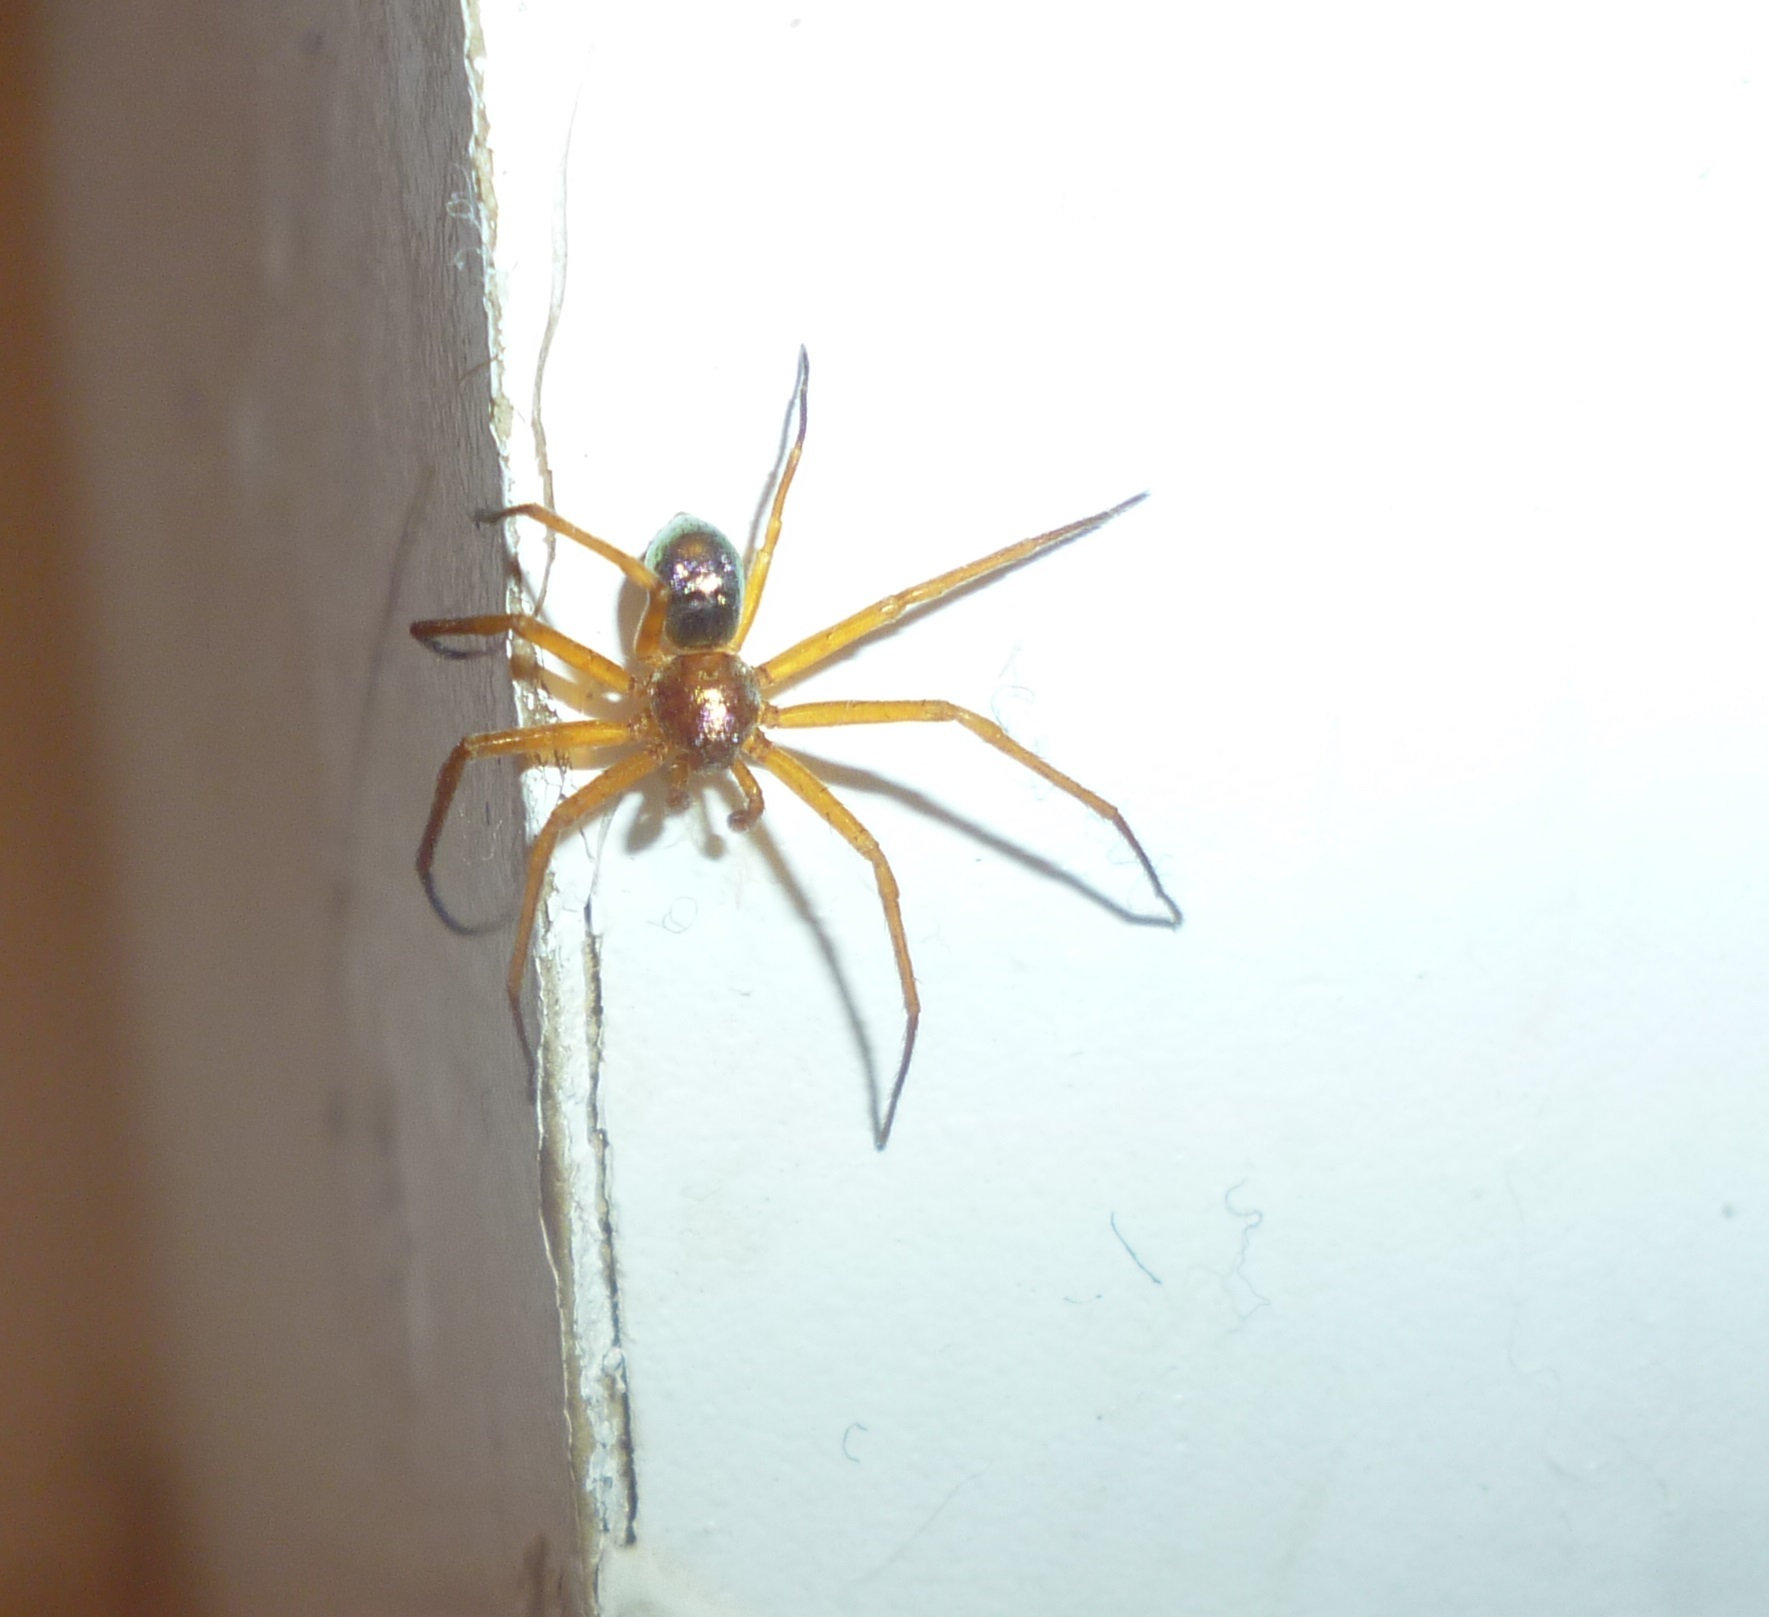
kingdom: Animalia
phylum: Arthropoda
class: Arachnida
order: Araneae
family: Philodromidae
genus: Philodromus
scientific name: Philodromus marxi
